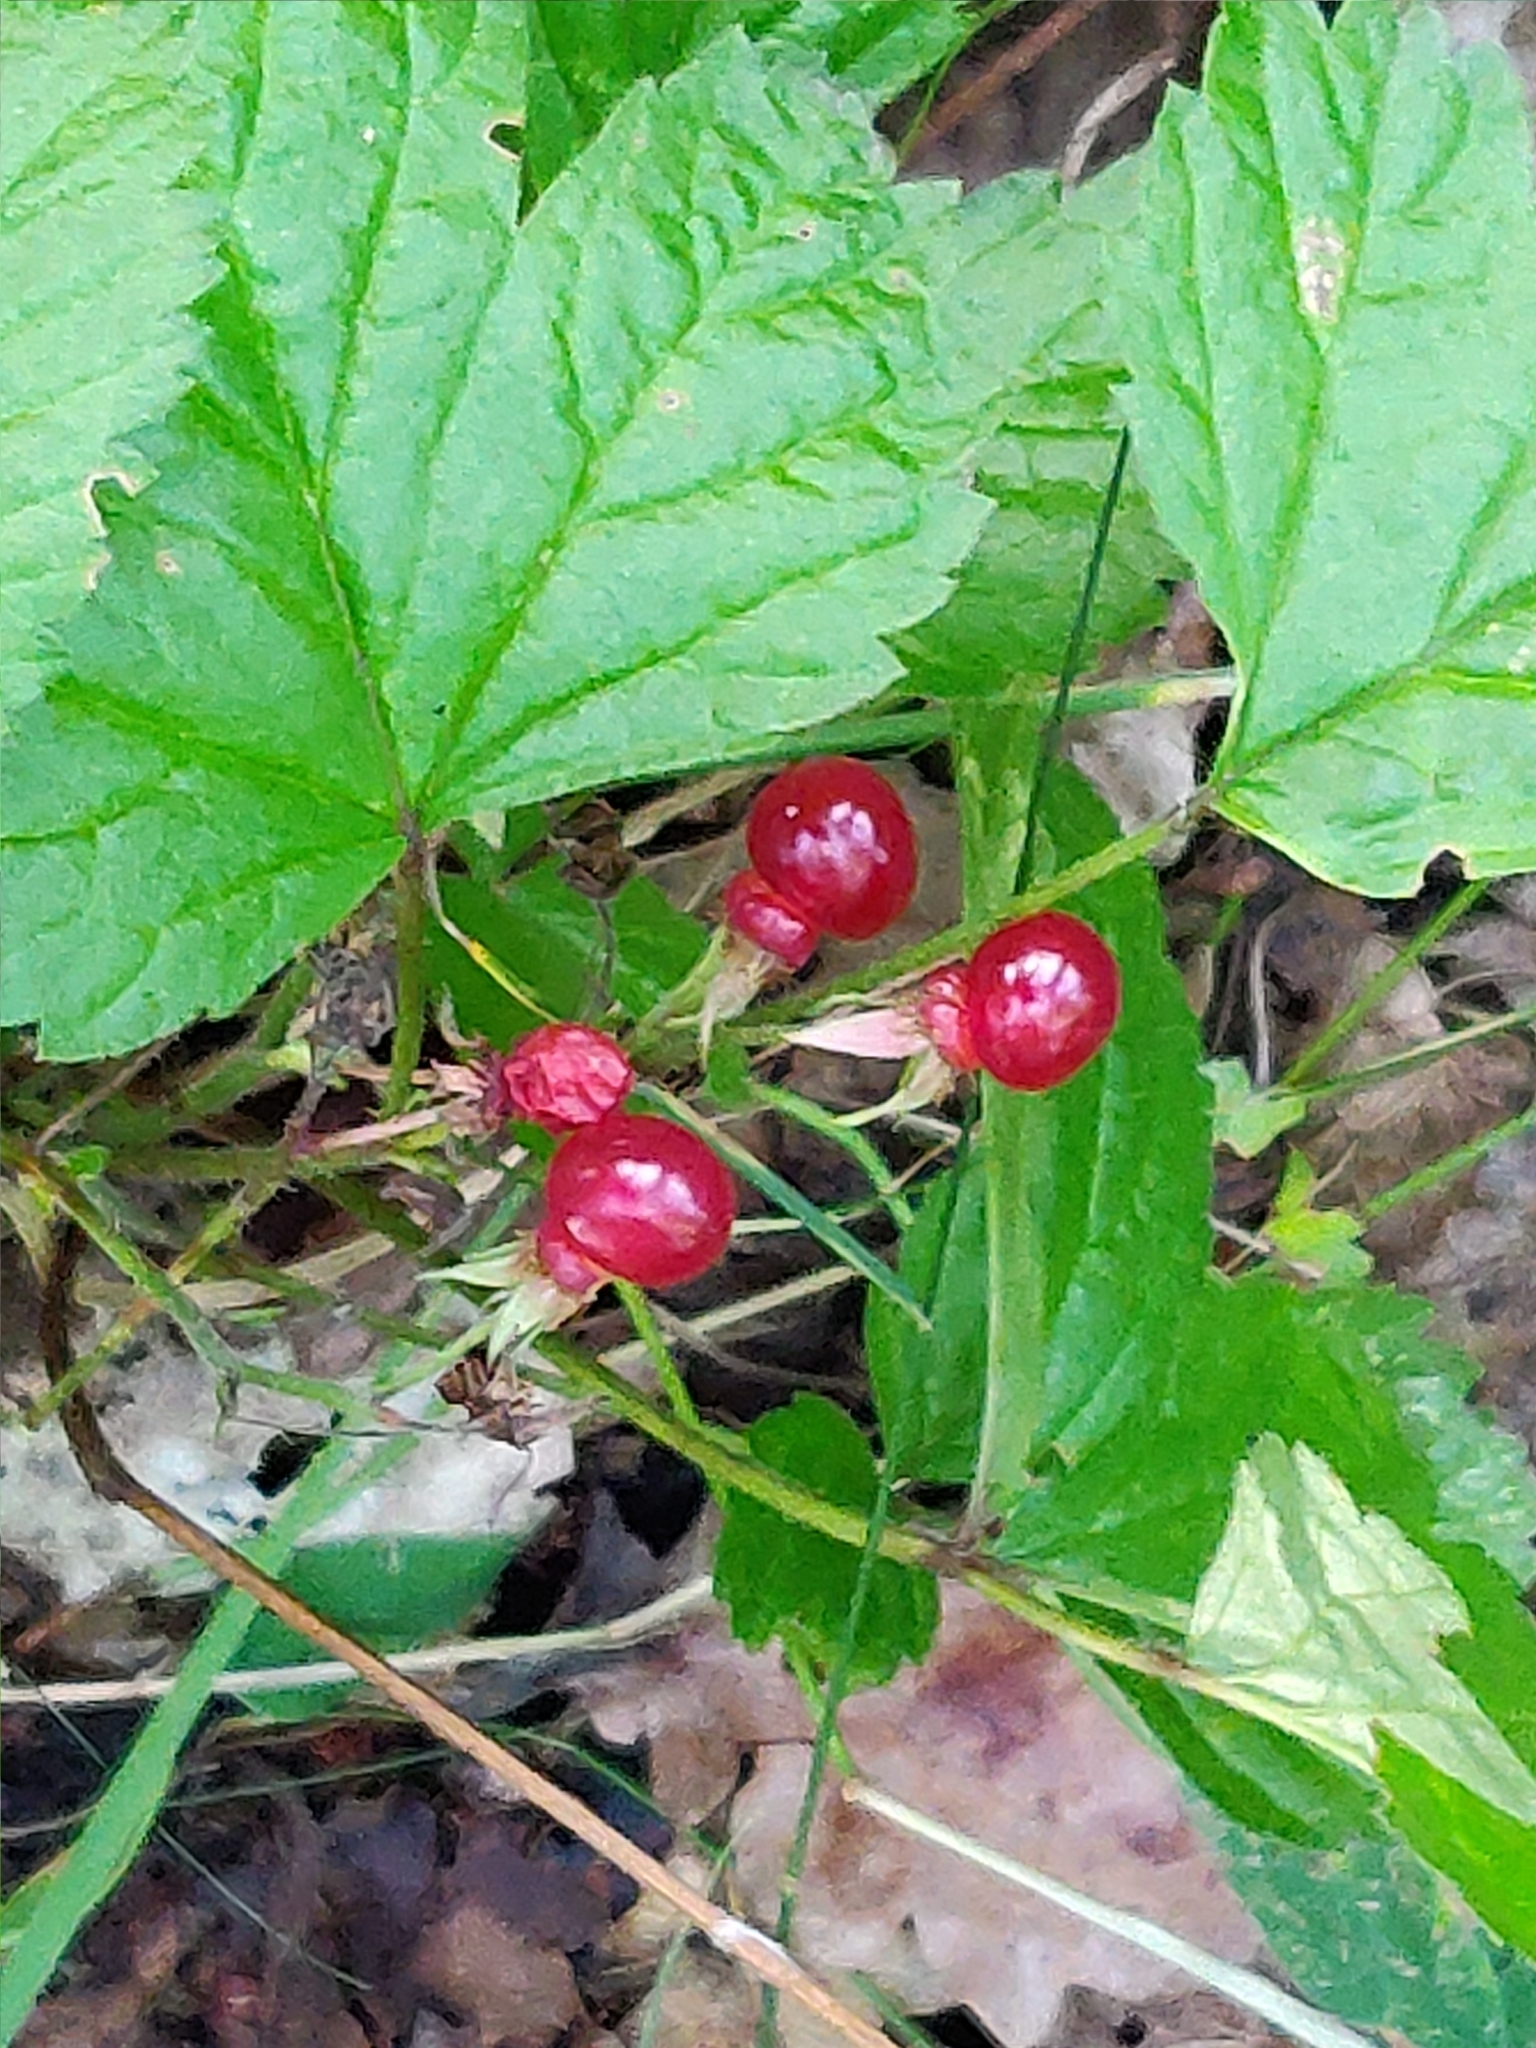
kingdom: Plantae
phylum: Tracheophyta
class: Magnoliopsida
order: Rosales
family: Rosaceae
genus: Rubus
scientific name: Rubus saxatilis
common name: Stone bramble
